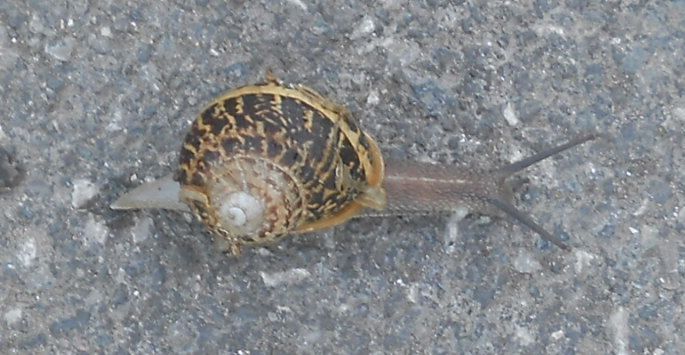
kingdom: Animalia
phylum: Mollusca
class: Gastropoda
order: Stylommatophora
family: Helicidae
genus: Cornu
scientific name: Cornu aspersum
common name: Brown garden snail
